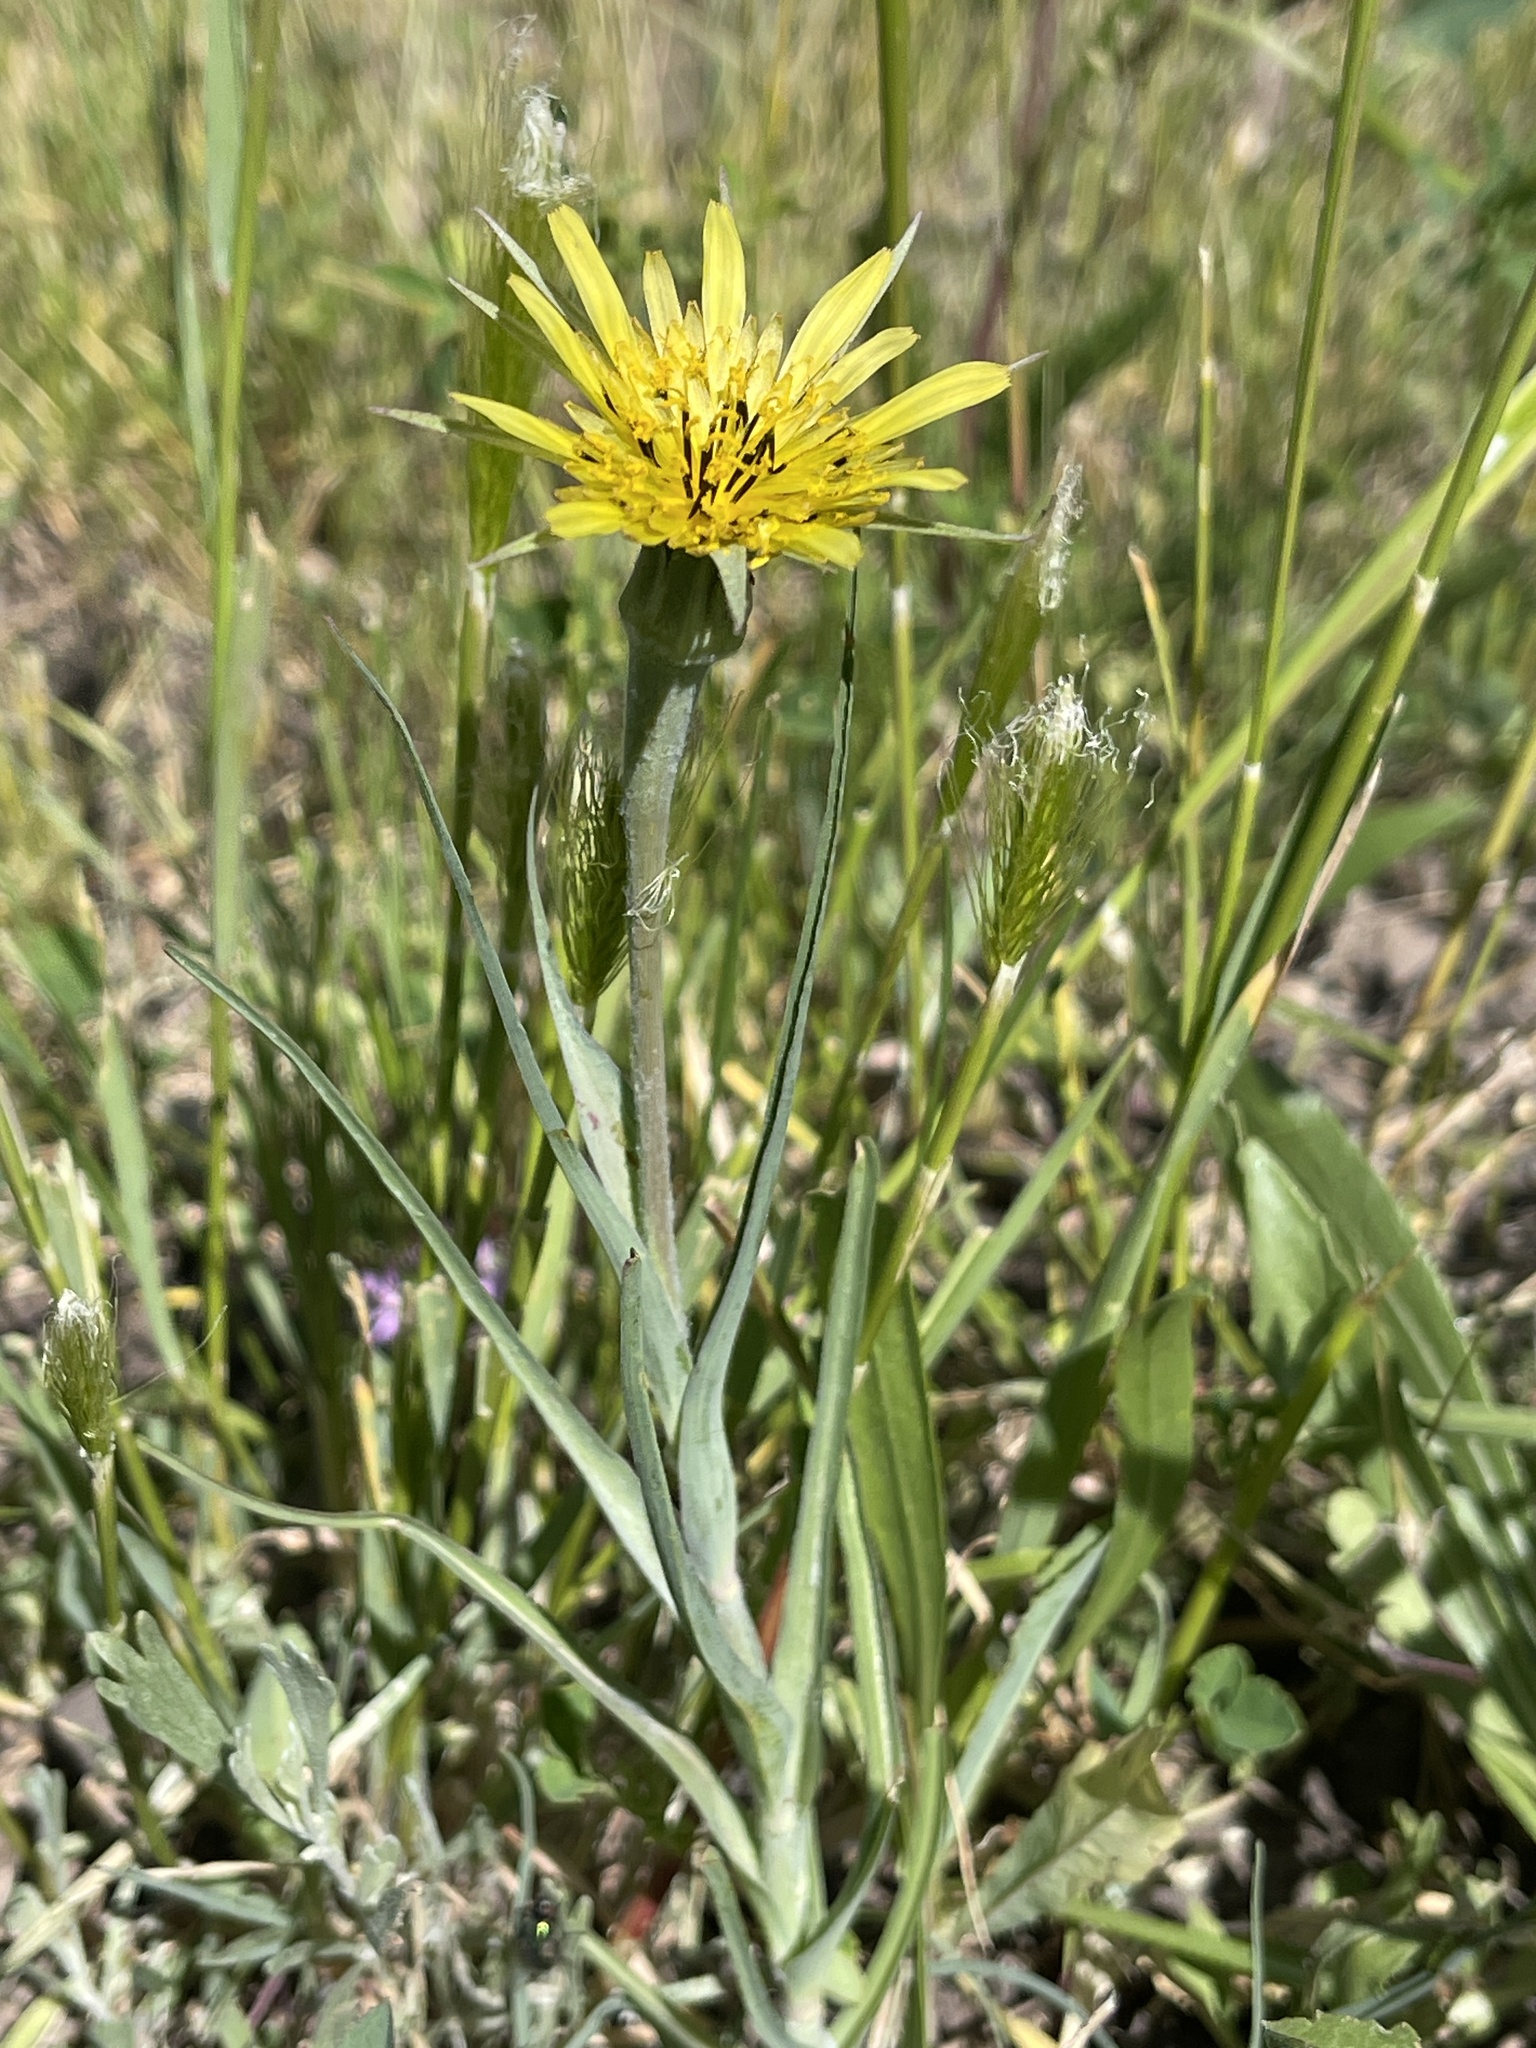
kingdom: Plantae
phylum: Tracheophyta
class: Magnoliopsida
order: Asterales
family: Asteraceae
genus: Tragopogon
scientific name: Tragopogon dubius
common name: Yellow salsify
